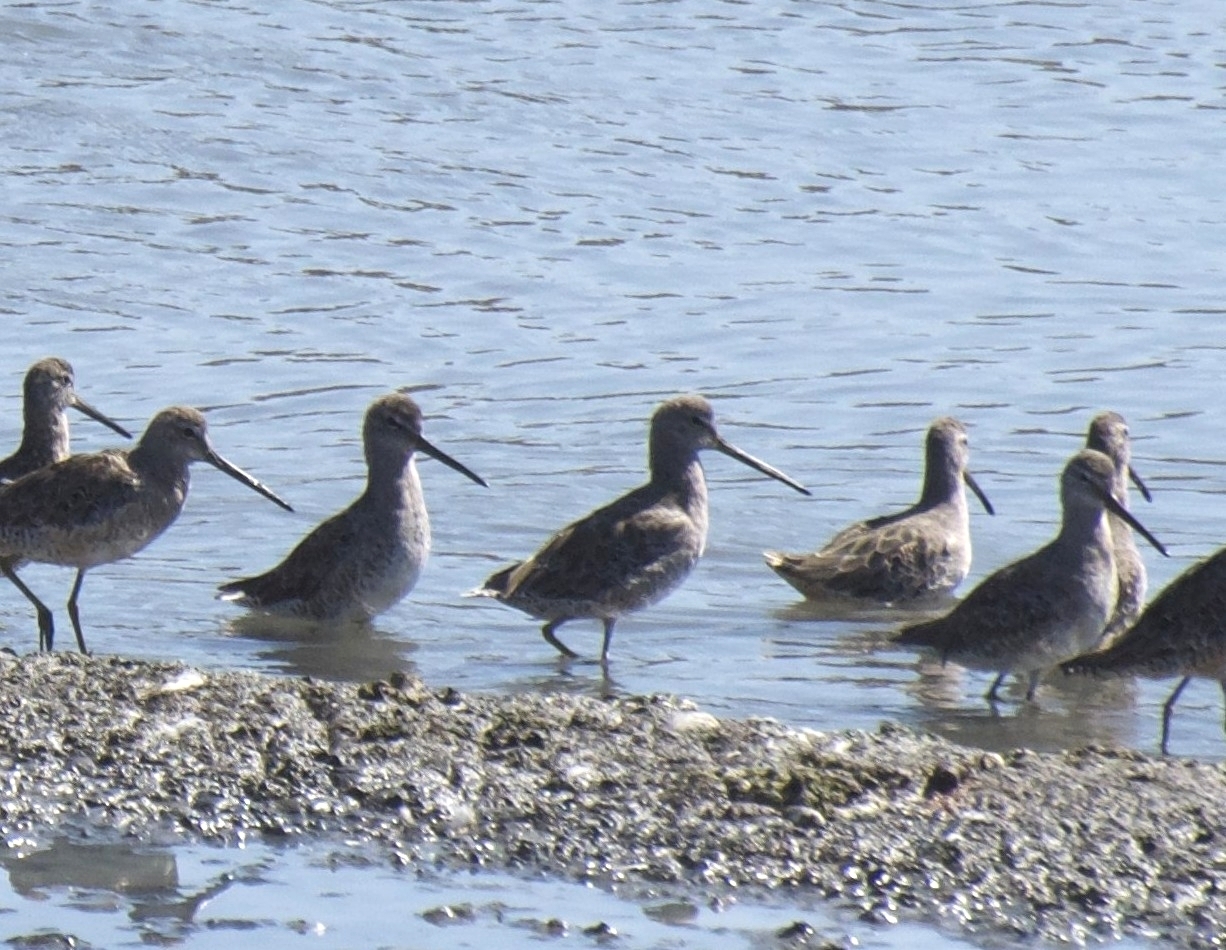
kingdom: Animalia
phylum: Chordata
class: Aves
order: Charadriiformes
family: Scolopacidae
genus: Limnodromus
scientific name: Limnodromus
